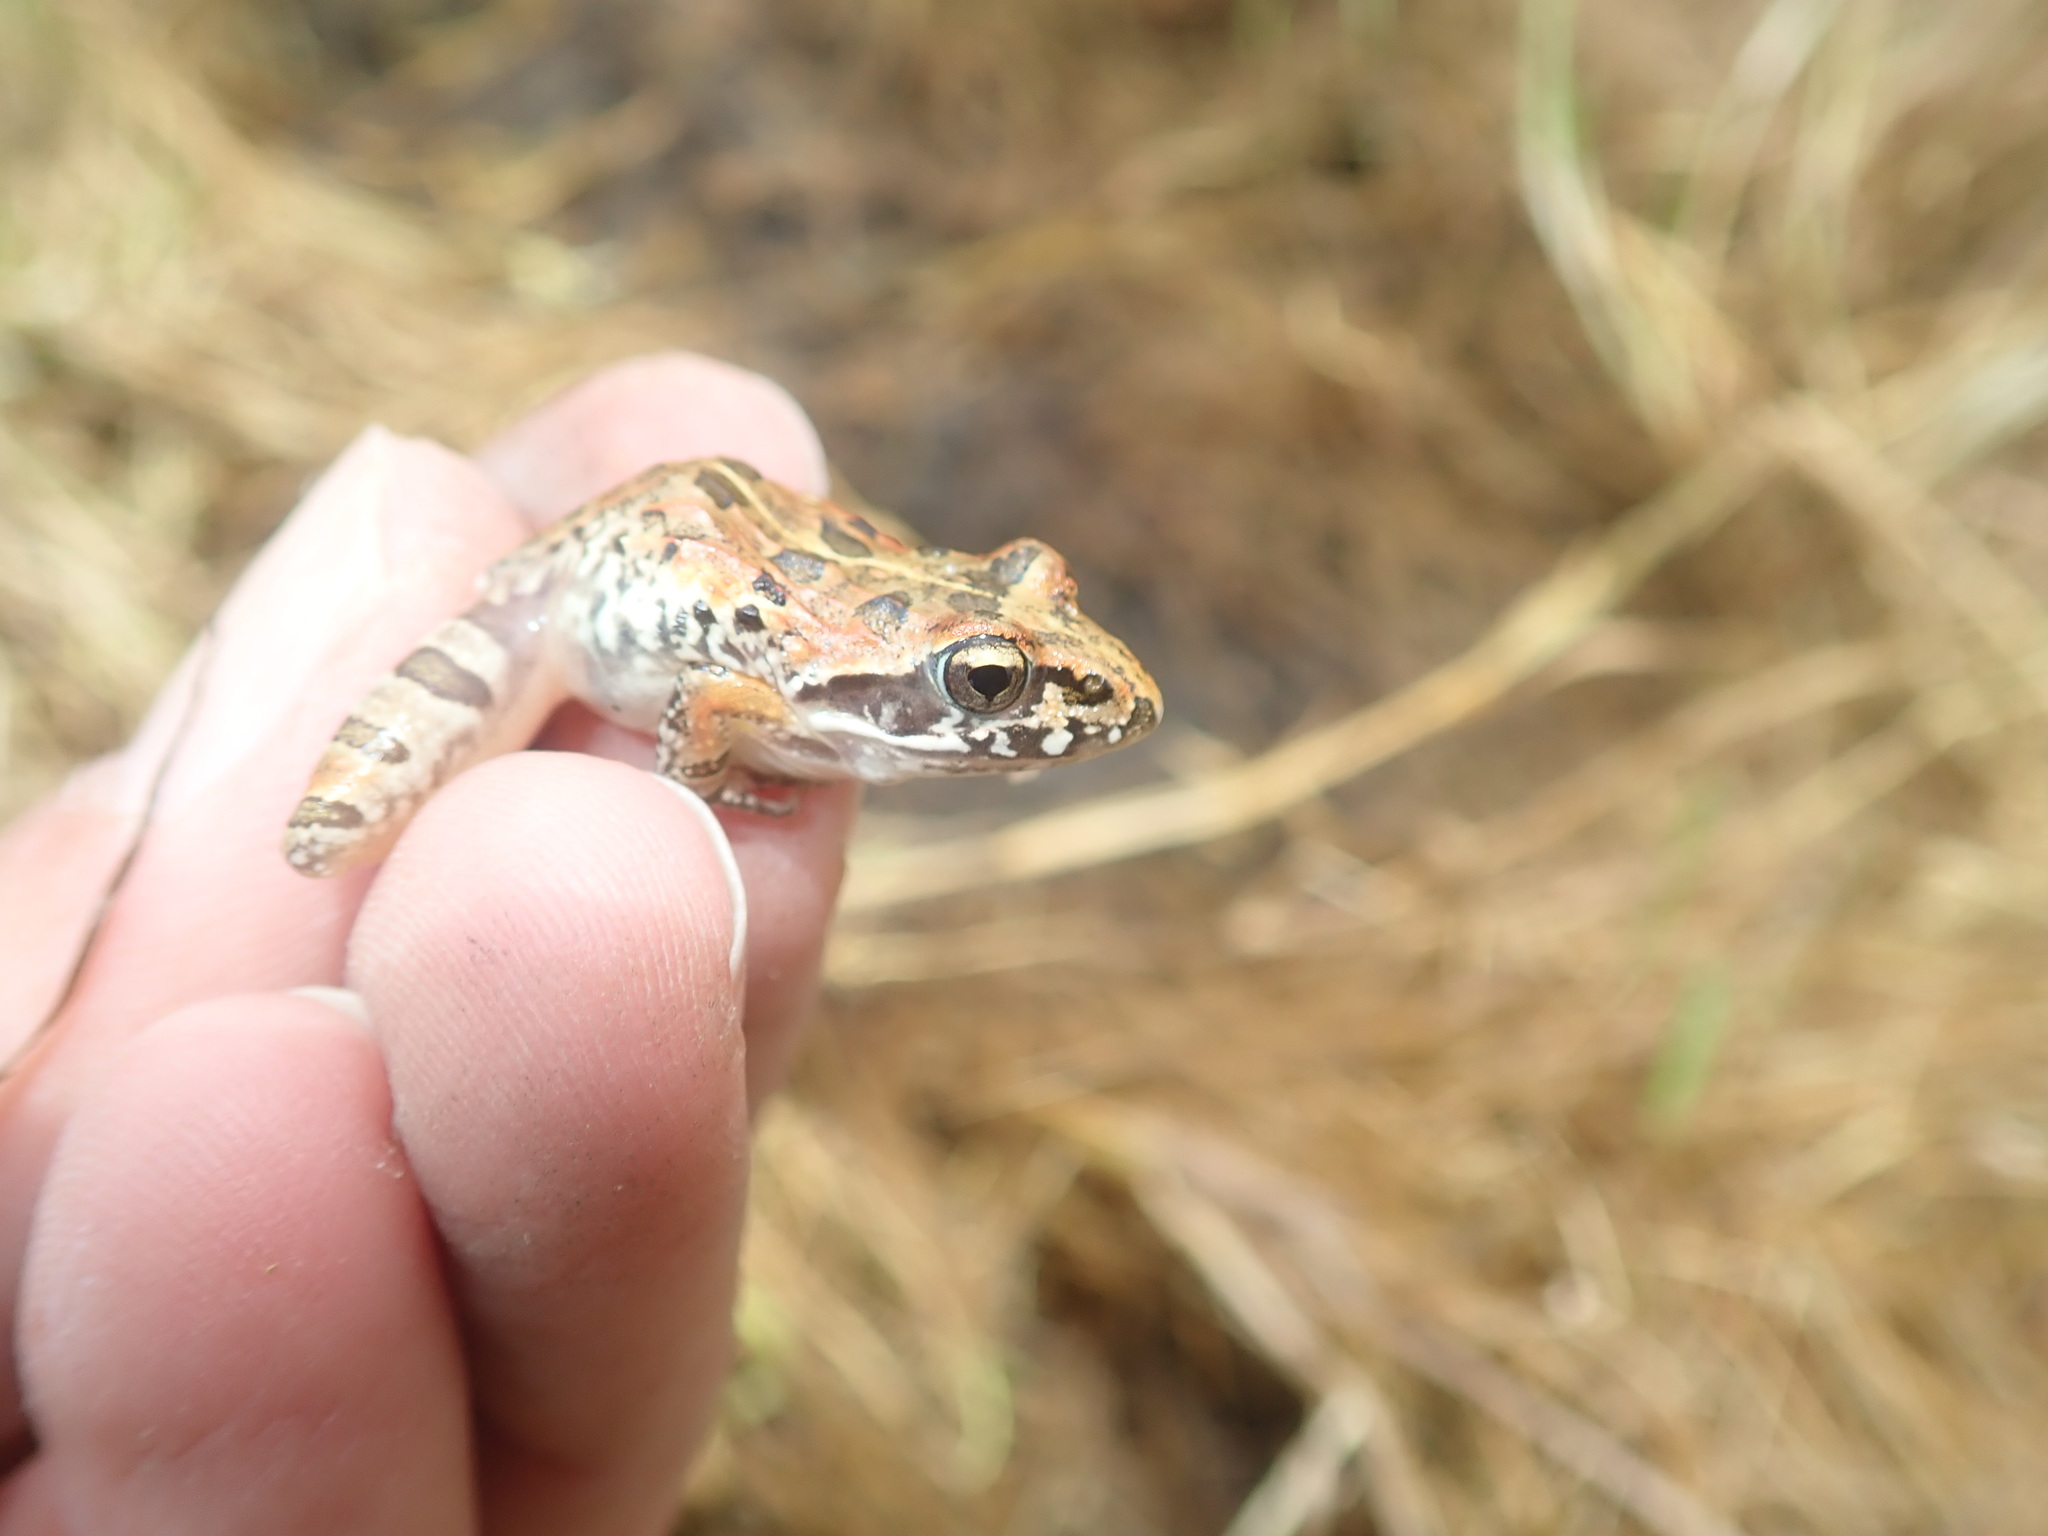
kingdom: Animalia
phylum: Chordata
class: Amphibia
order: Anura
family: Pyxicephalidae
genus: Strongylopus
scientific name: Strongylopus grayii
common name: Gray's stream frog
